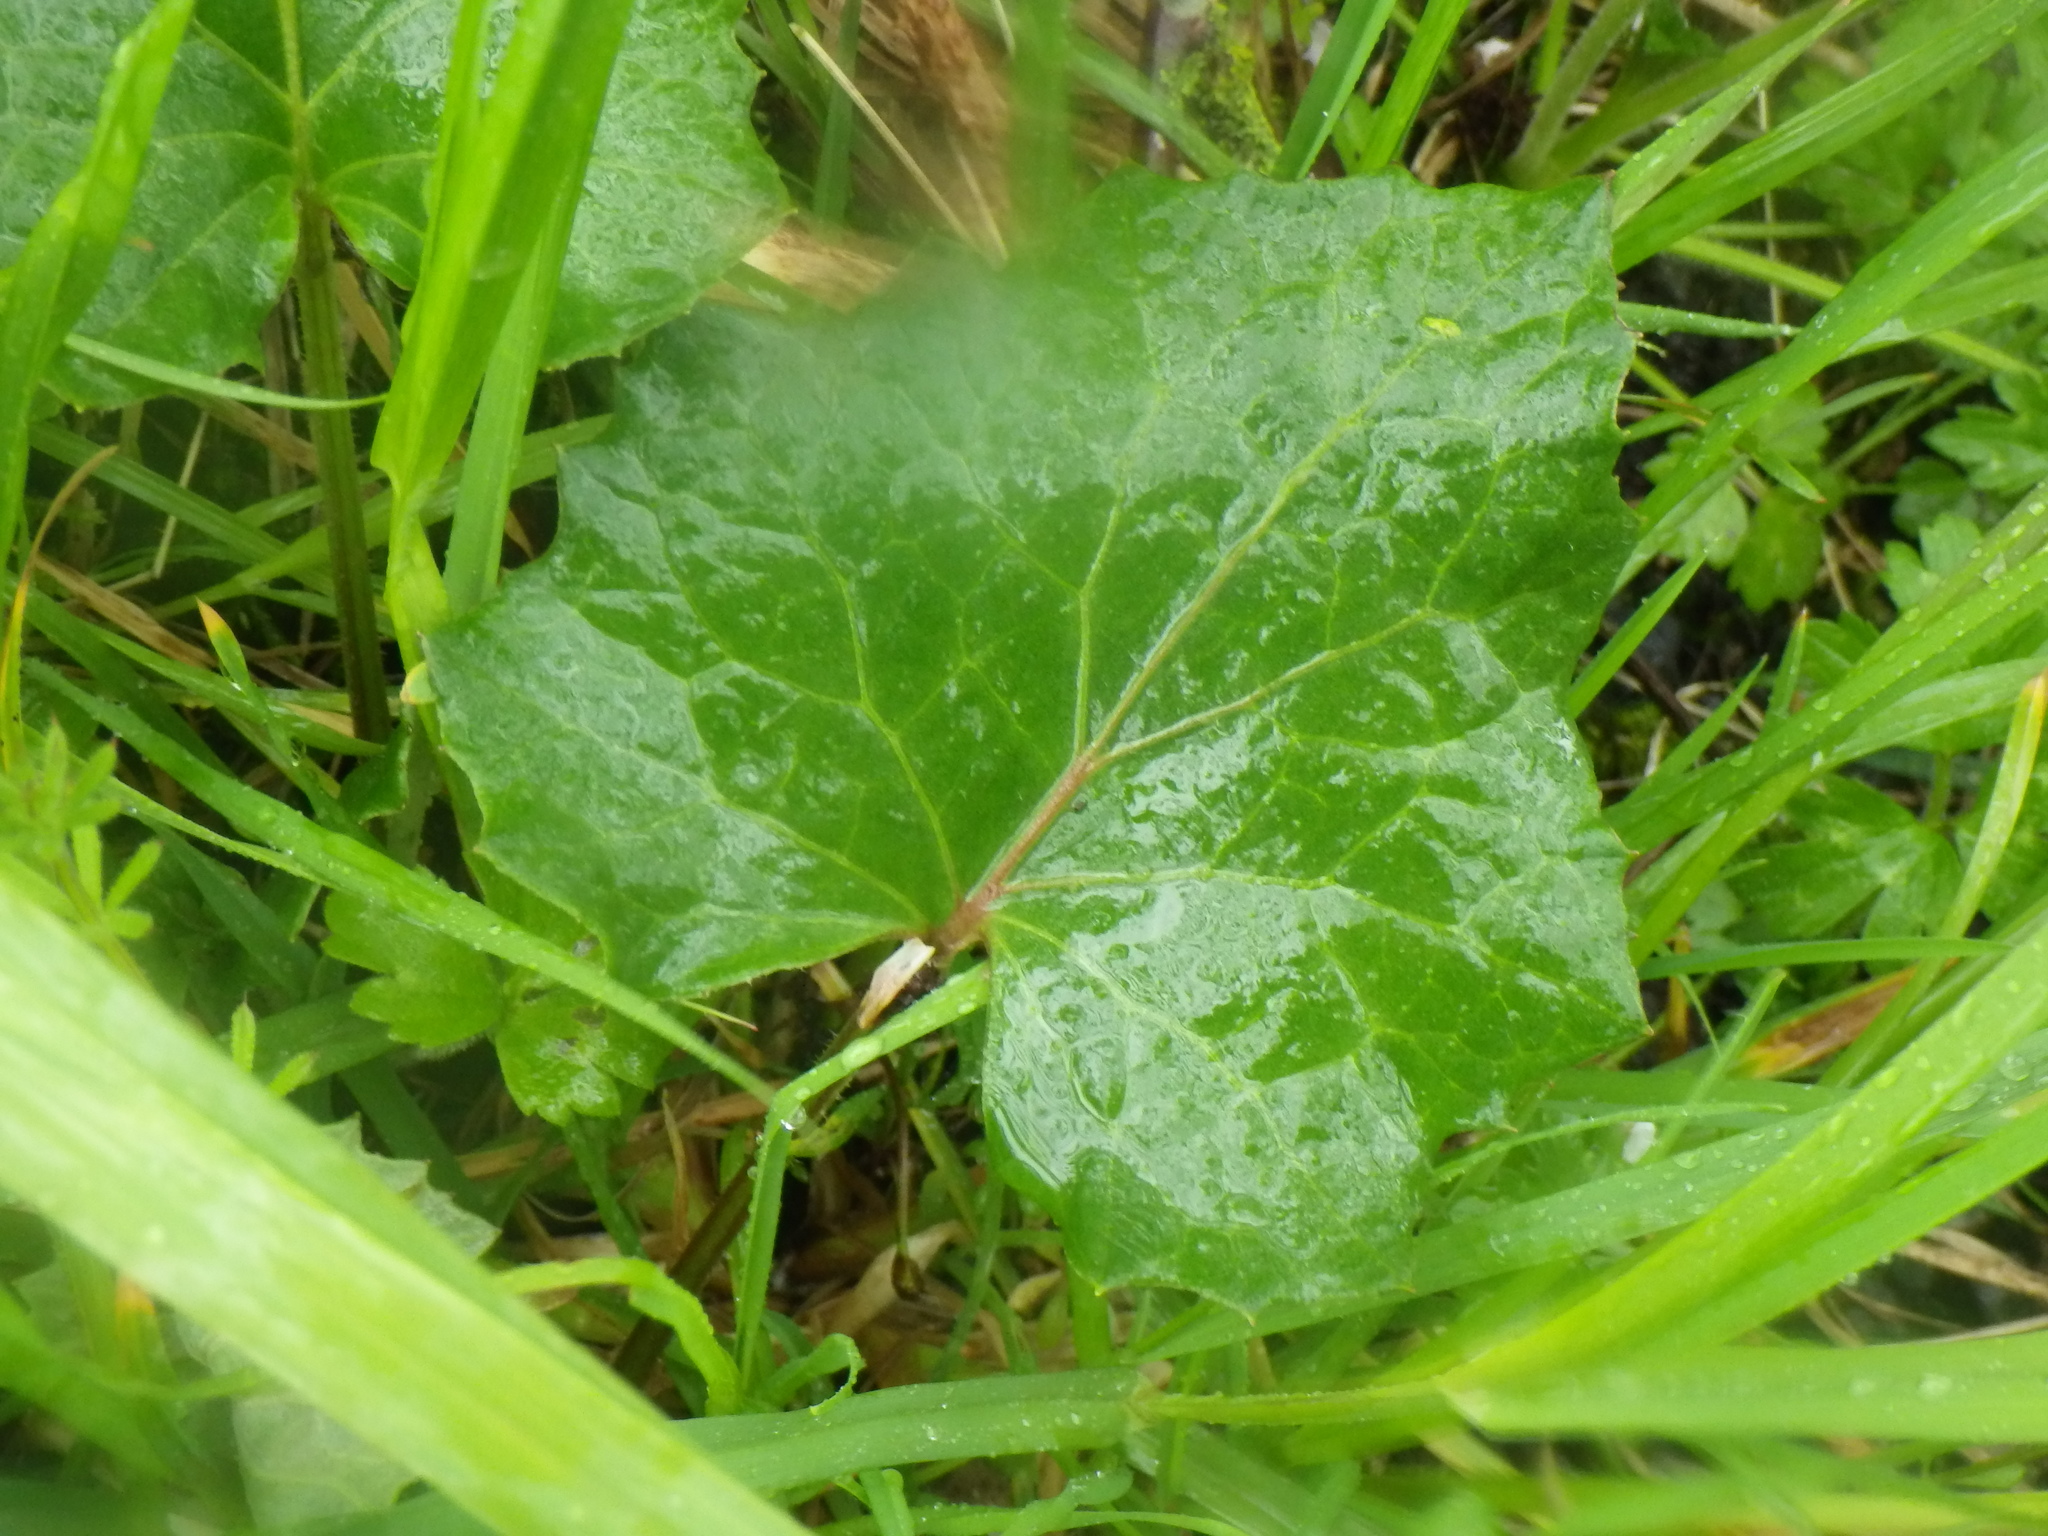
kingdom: Plantae
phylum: Tracheophyta
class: Magnoliopsida
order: Asterales
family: Asteraceae
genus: Tussilago
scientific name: Tussilago farfara
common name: Coltsfoot
